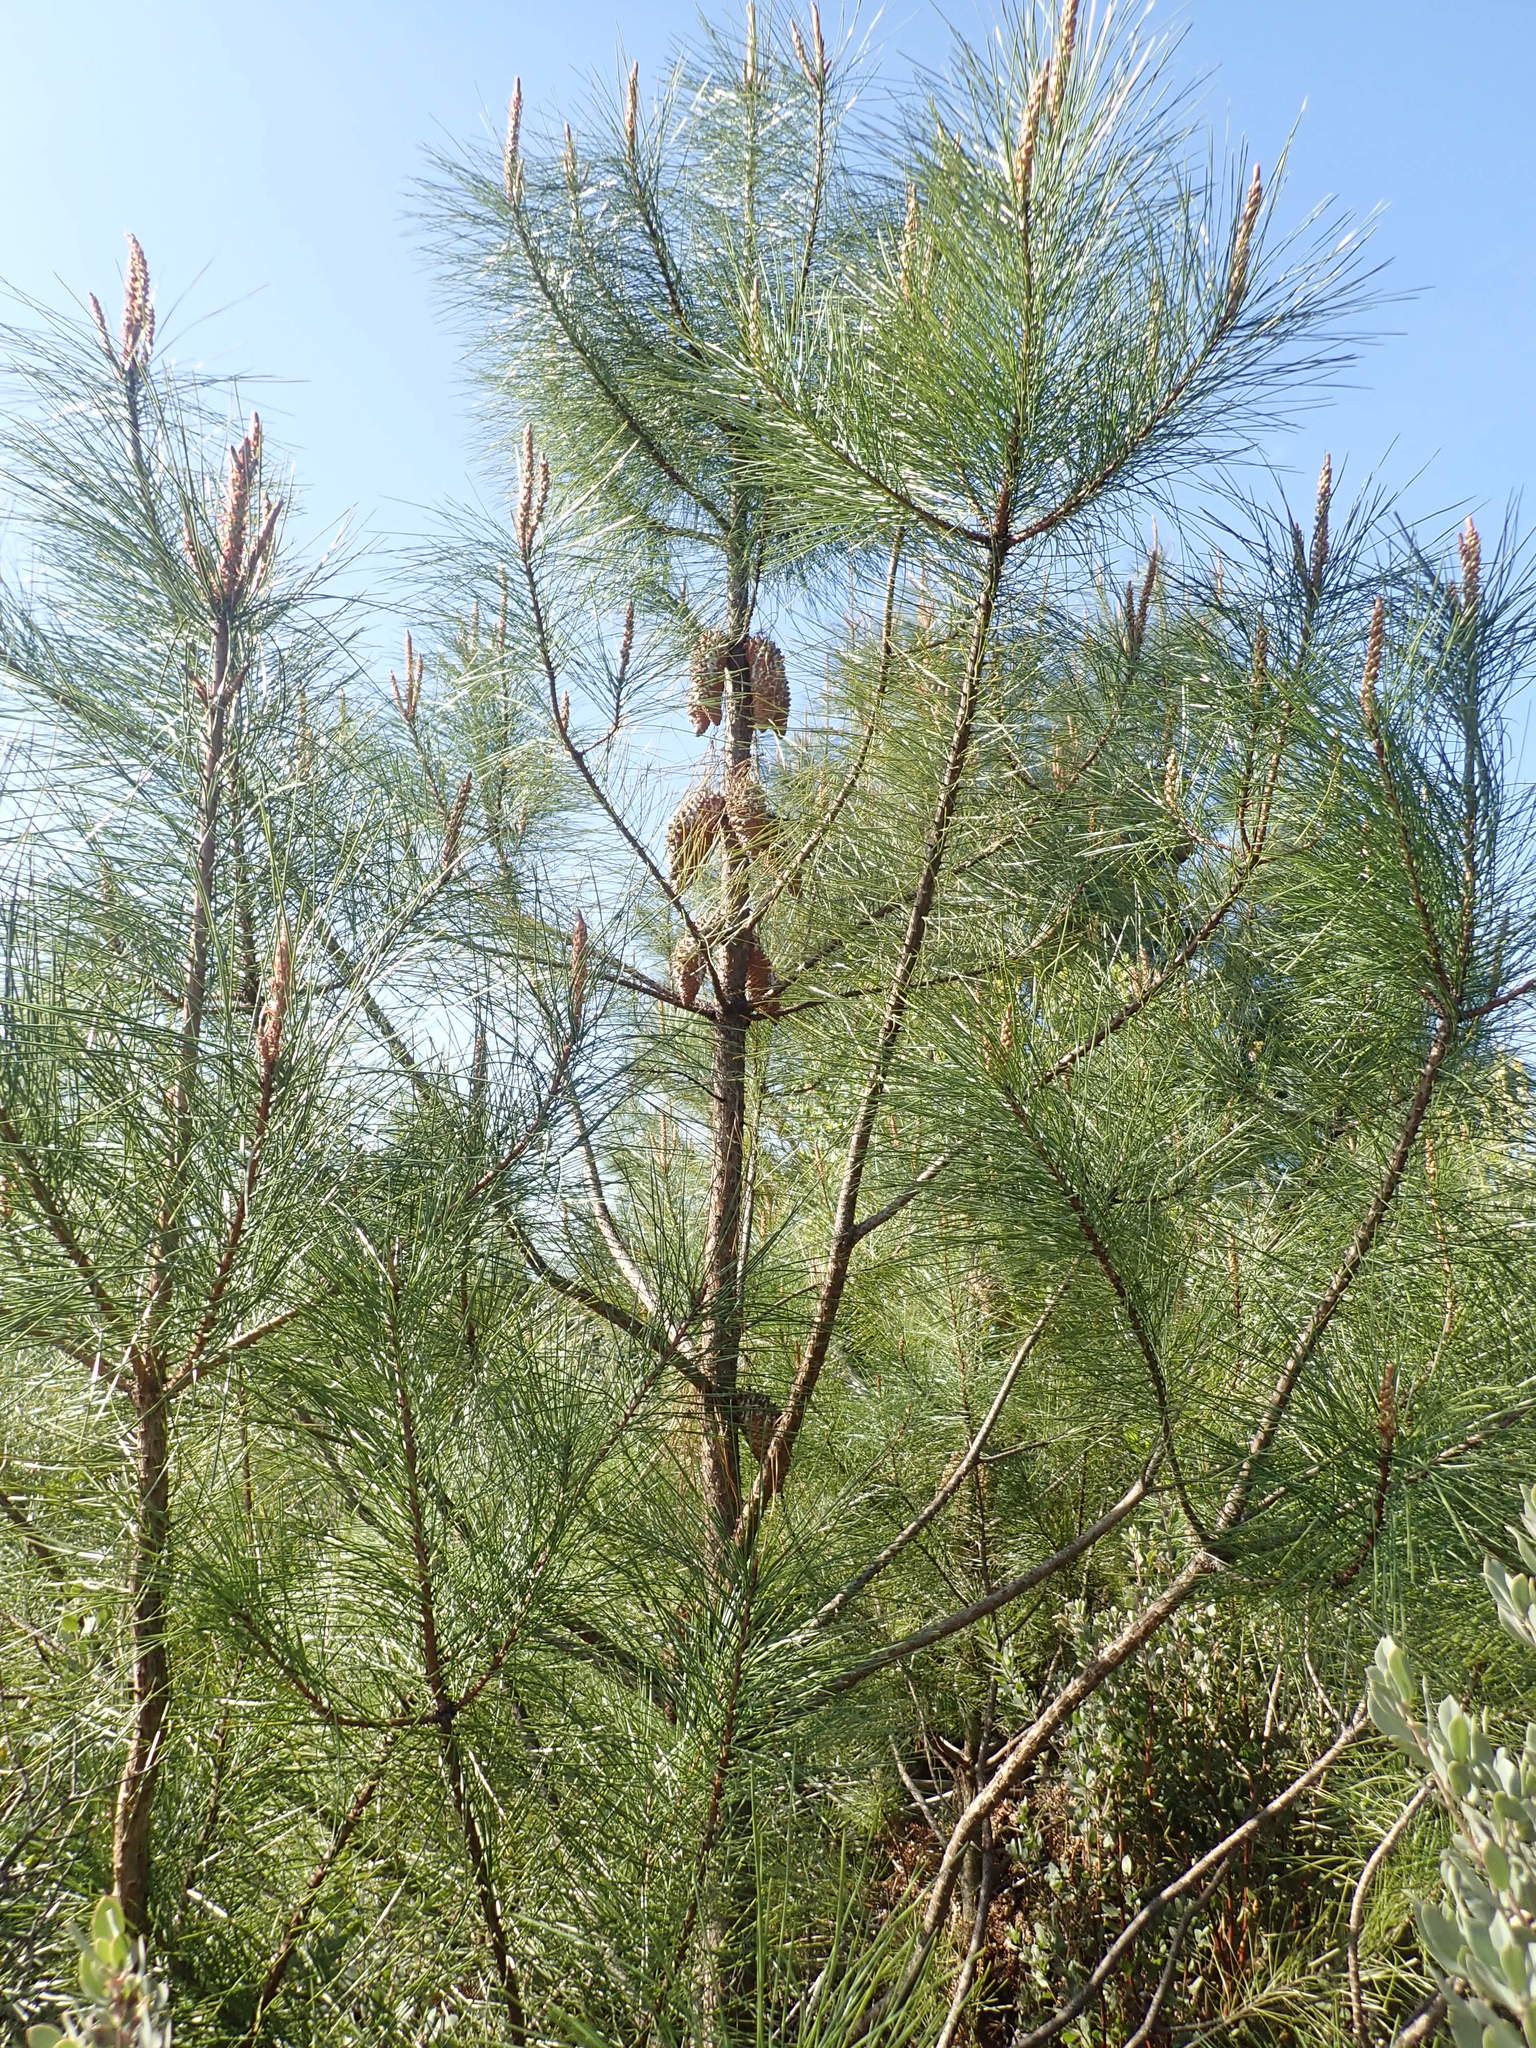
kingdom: Plantae
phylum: Tracheophyta
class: Pinopsida
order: Pinales
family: Pinaceae
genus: Pinus
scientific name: Pinus attenuata
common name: Knobcone pine
